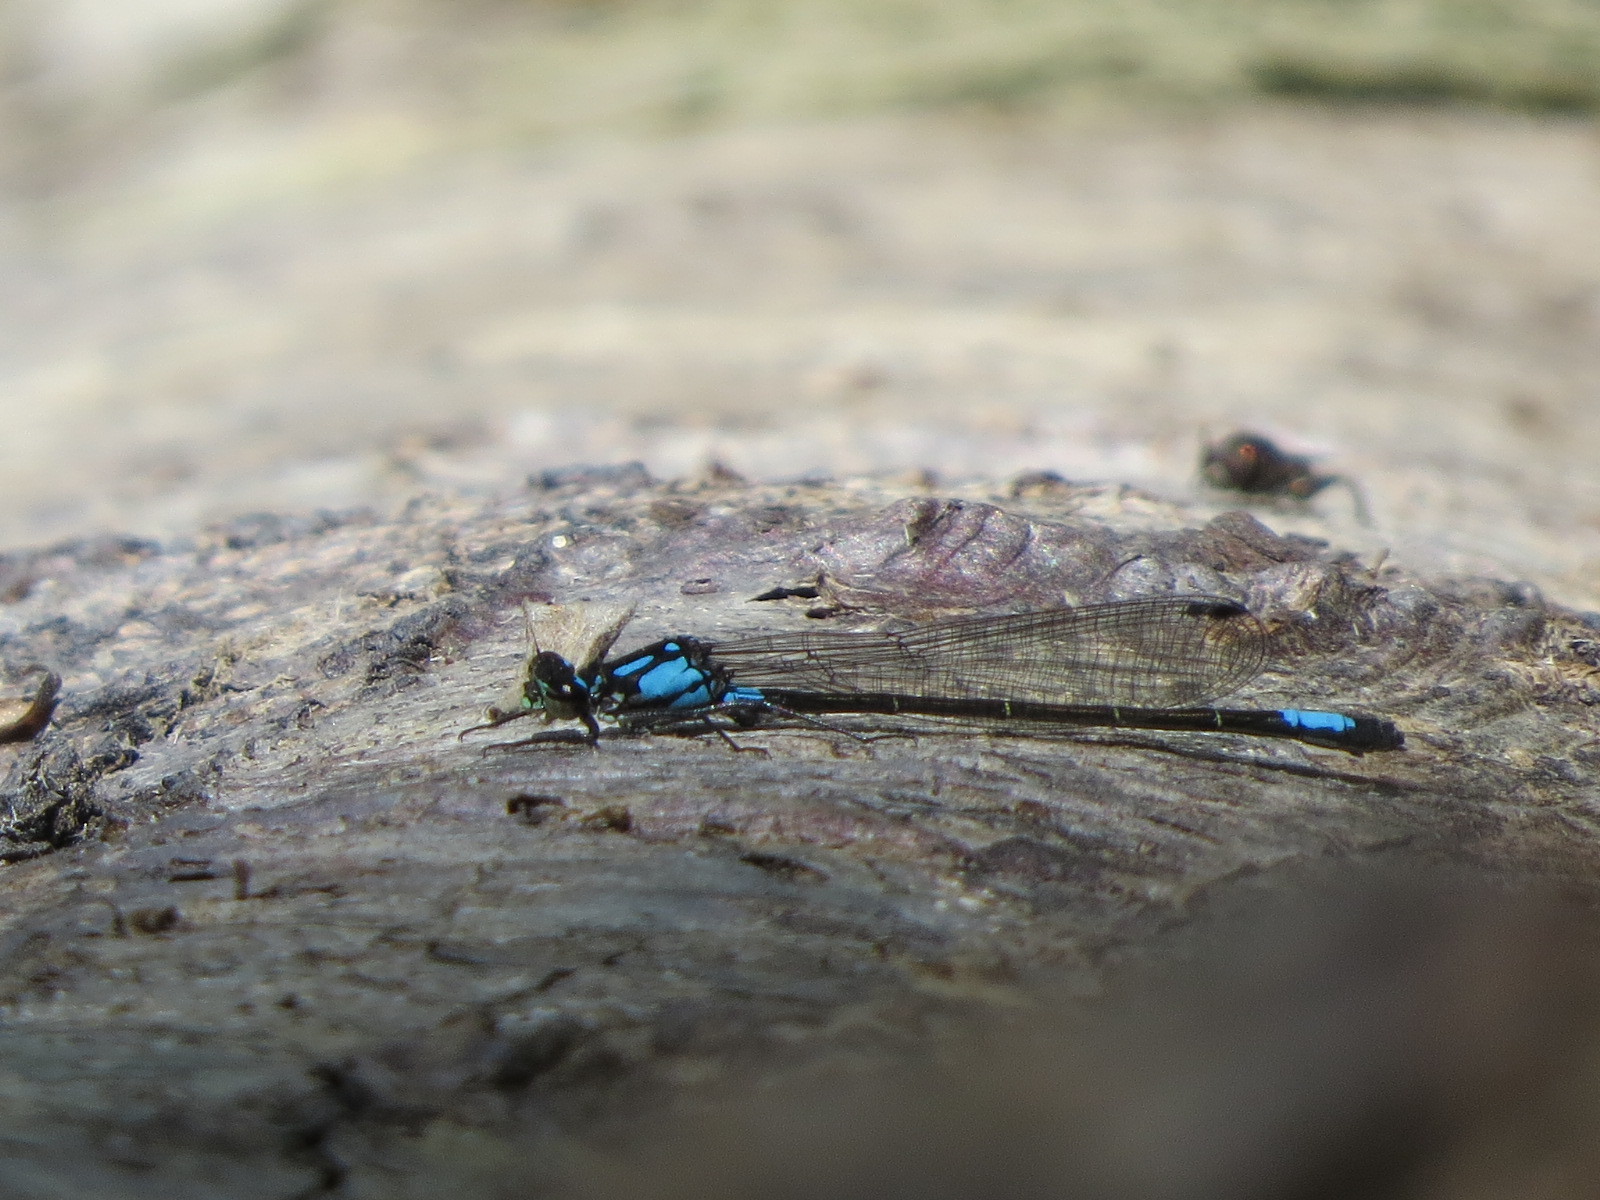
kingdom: Animalia
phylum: Arthropoda
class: Insecta
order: Odonata
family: Coenagrionidae
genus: Zoniagrion
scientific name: Zoniagrion exclamationis
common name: Exclamation damsel
